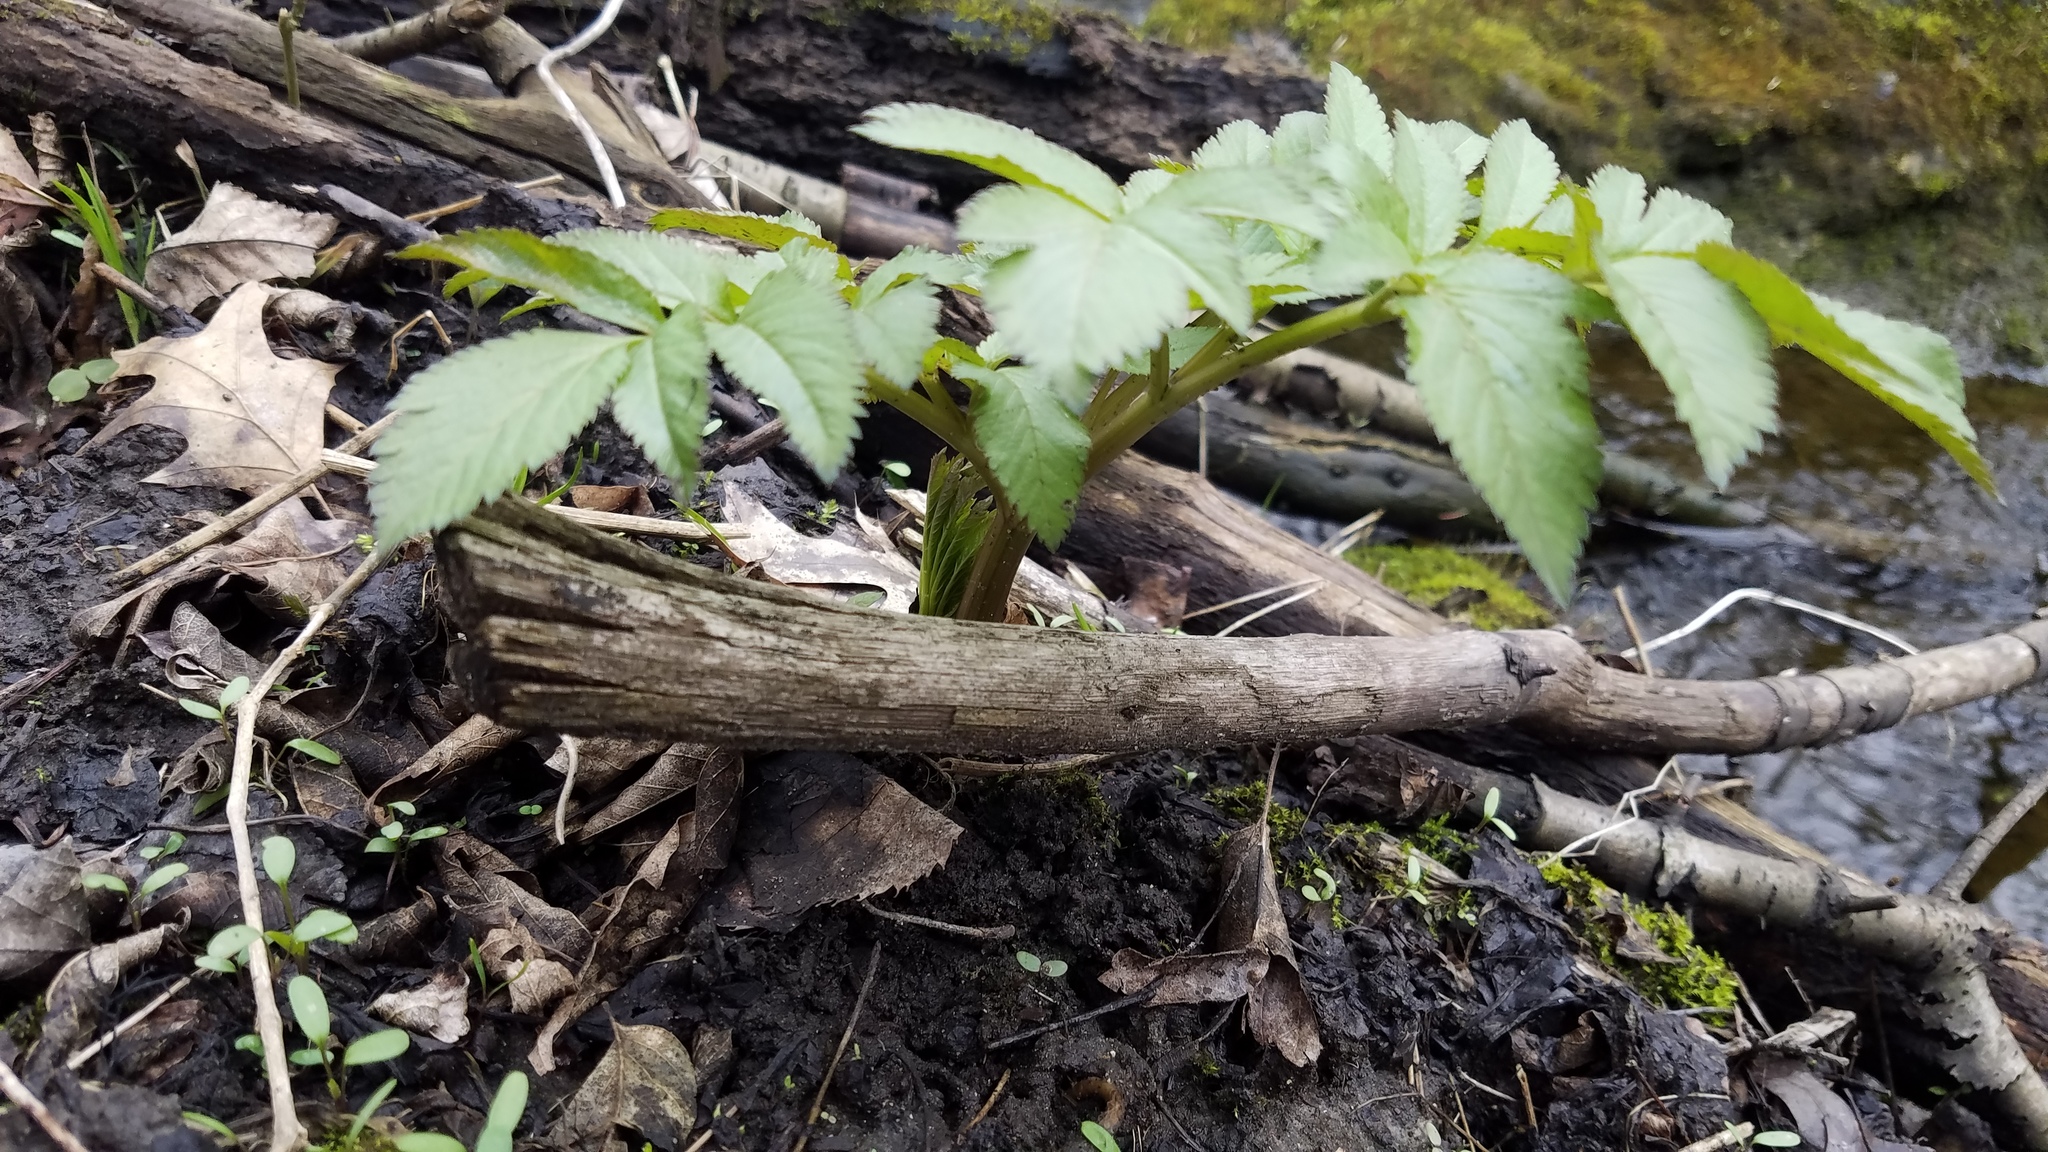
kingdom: Plantae
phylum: Tracheophyta
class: Magnoliopsida
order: Apiales
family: Apiaceae
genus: Angelica
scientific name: Angelica atropurpurea
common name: Great angelica
